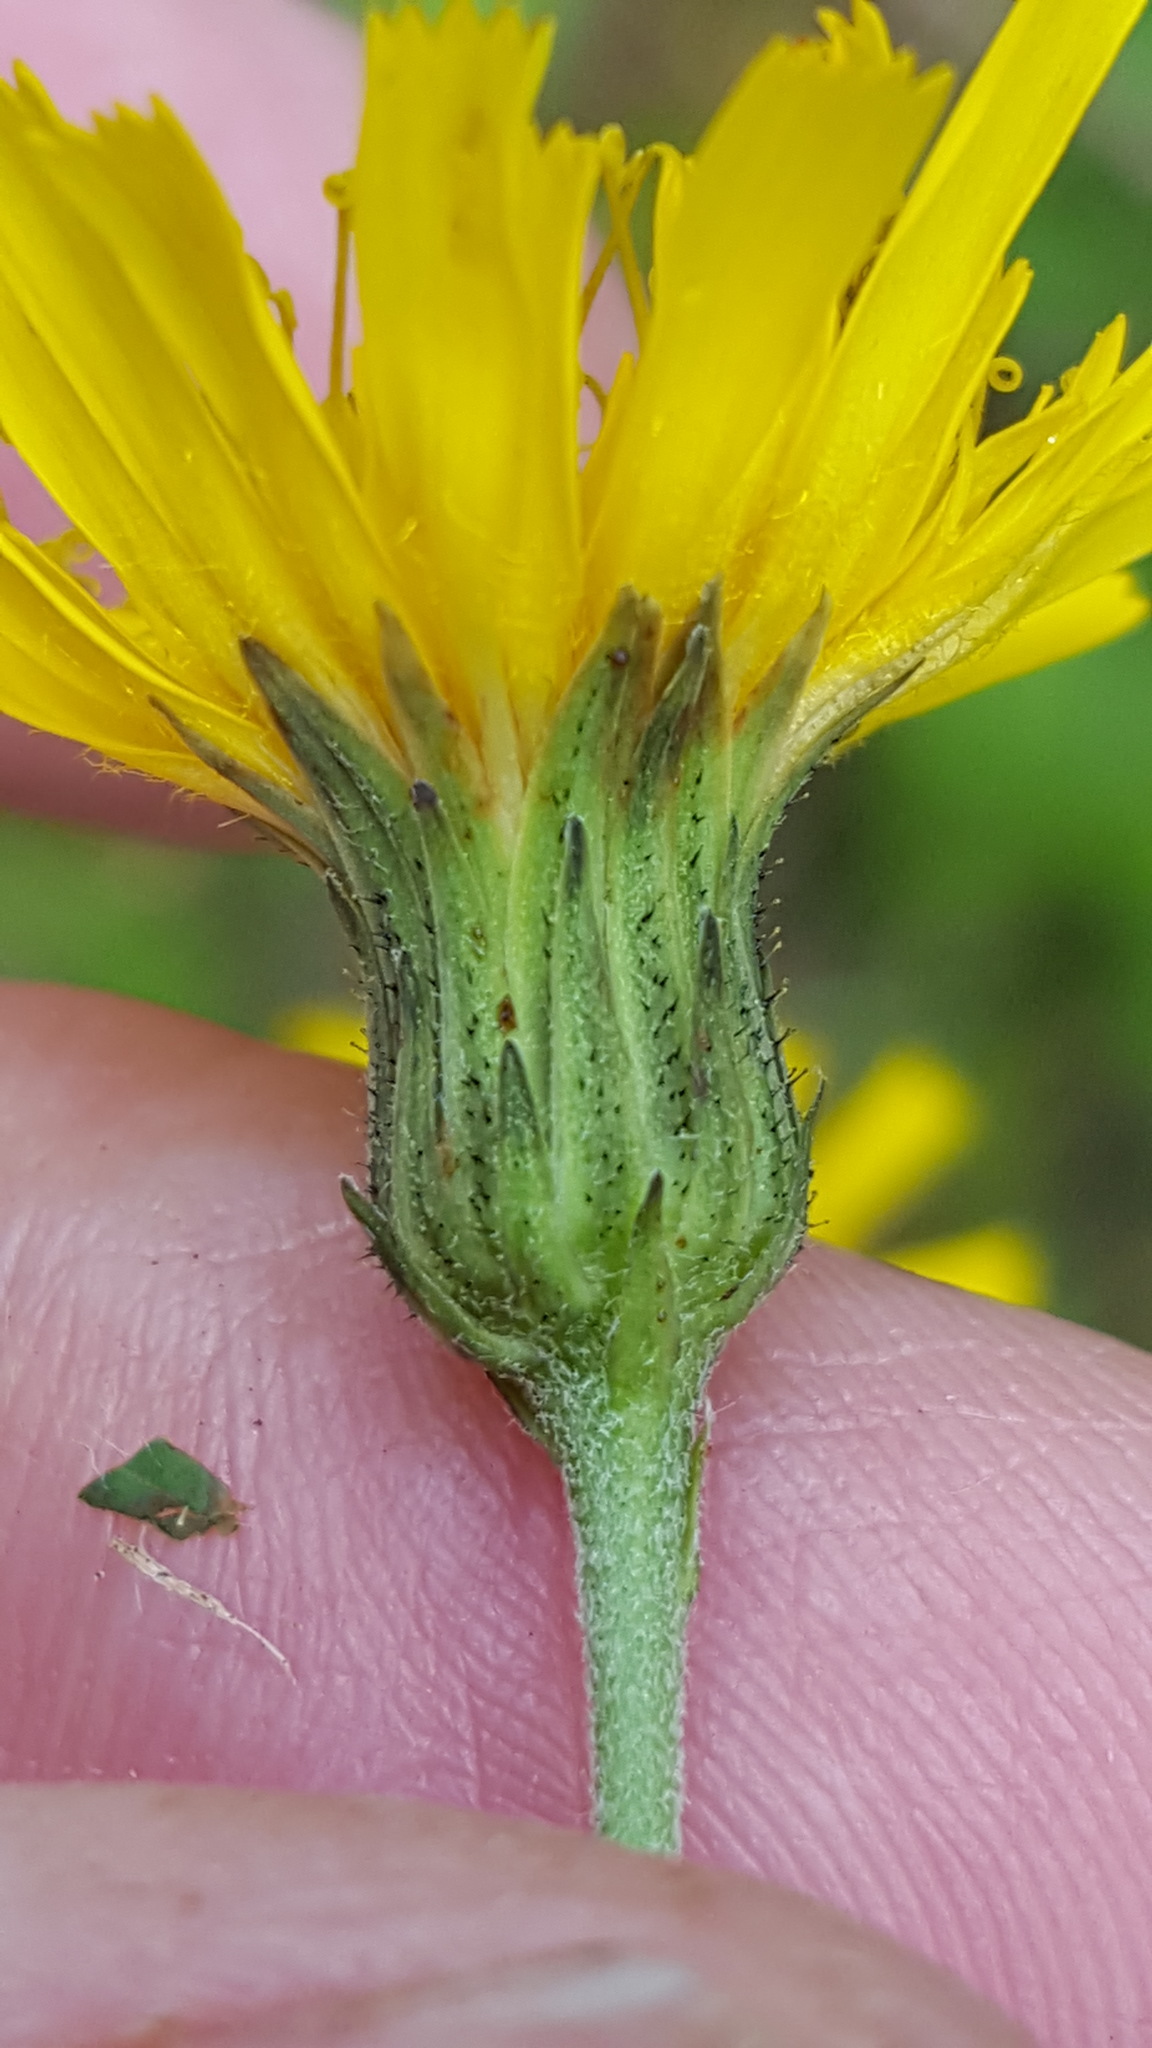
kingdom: Plantae
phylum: Tracheophyta
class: Magnoliopsida
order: Asterales
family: Asteraceae
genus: Hieracium
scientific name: Hieracium umbellatum
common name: Northern hawkweed
